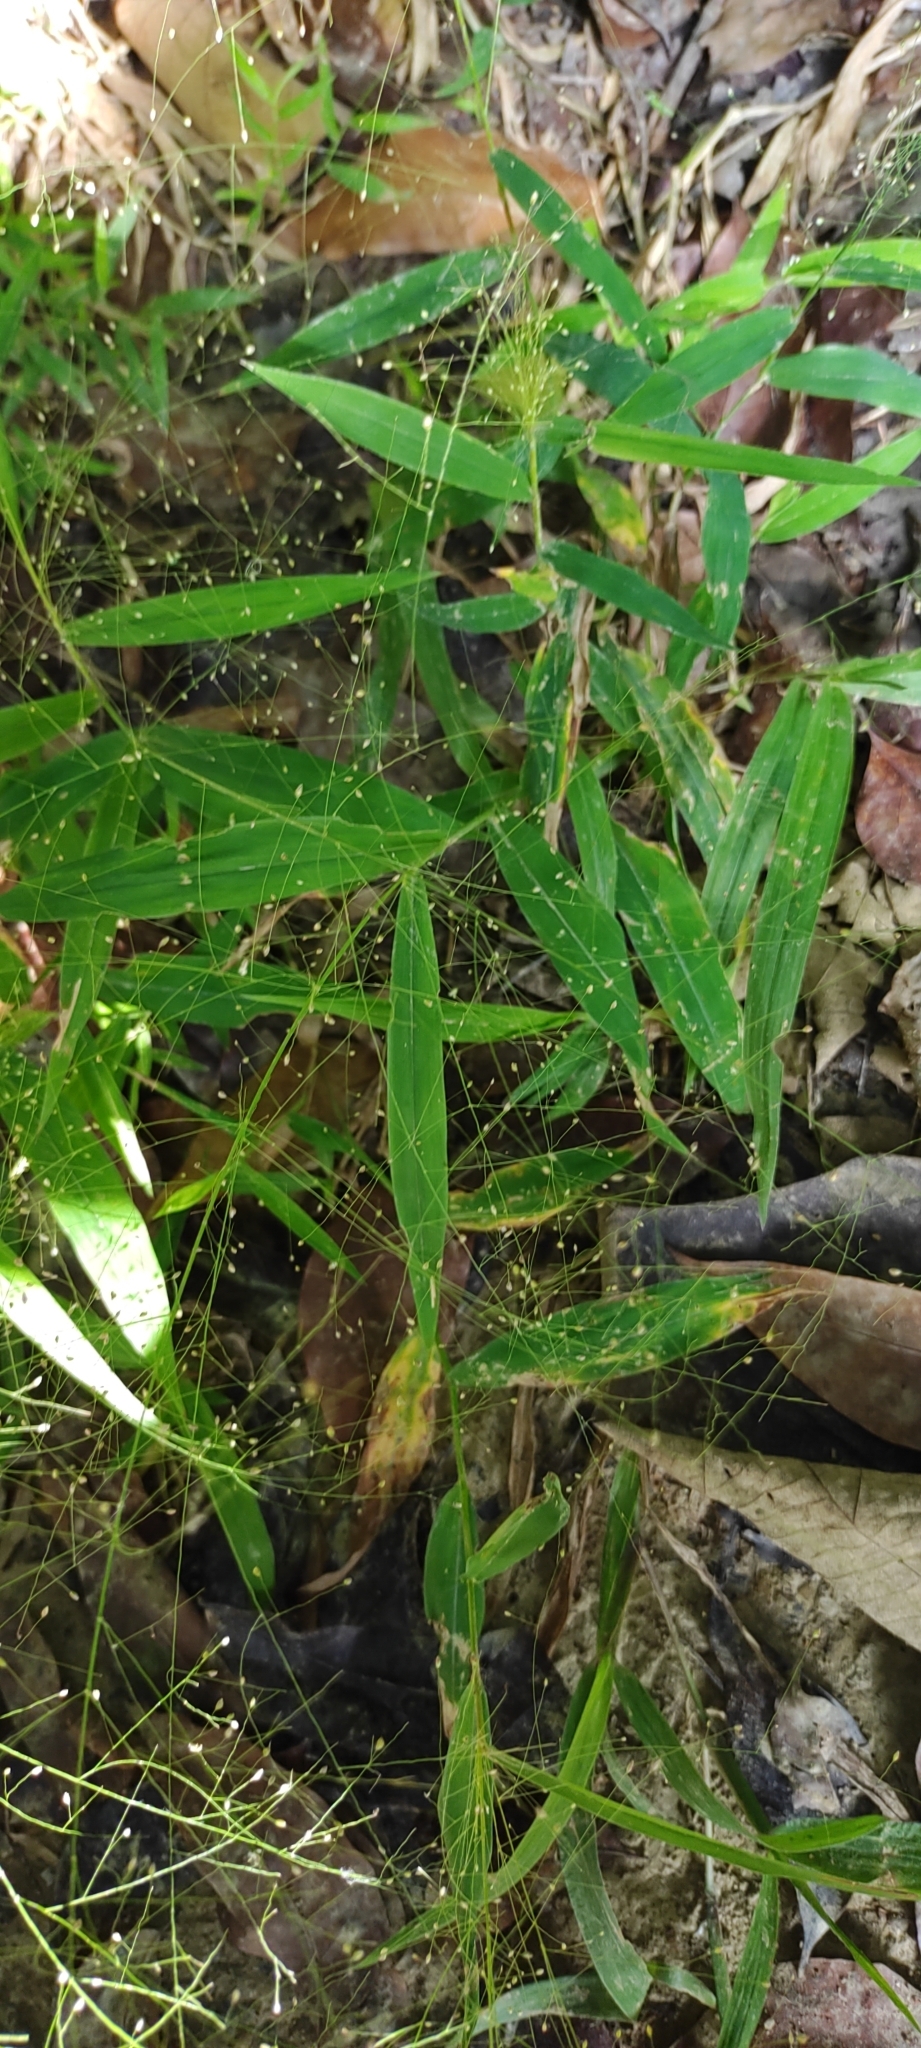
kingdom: Plantae
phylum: Tracheophyta
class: Liliopsida
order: Poales
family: Poaceae
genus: Cyrtococcum
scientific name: Cyrtococcum patens
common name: Broad-leaved bowgrass
